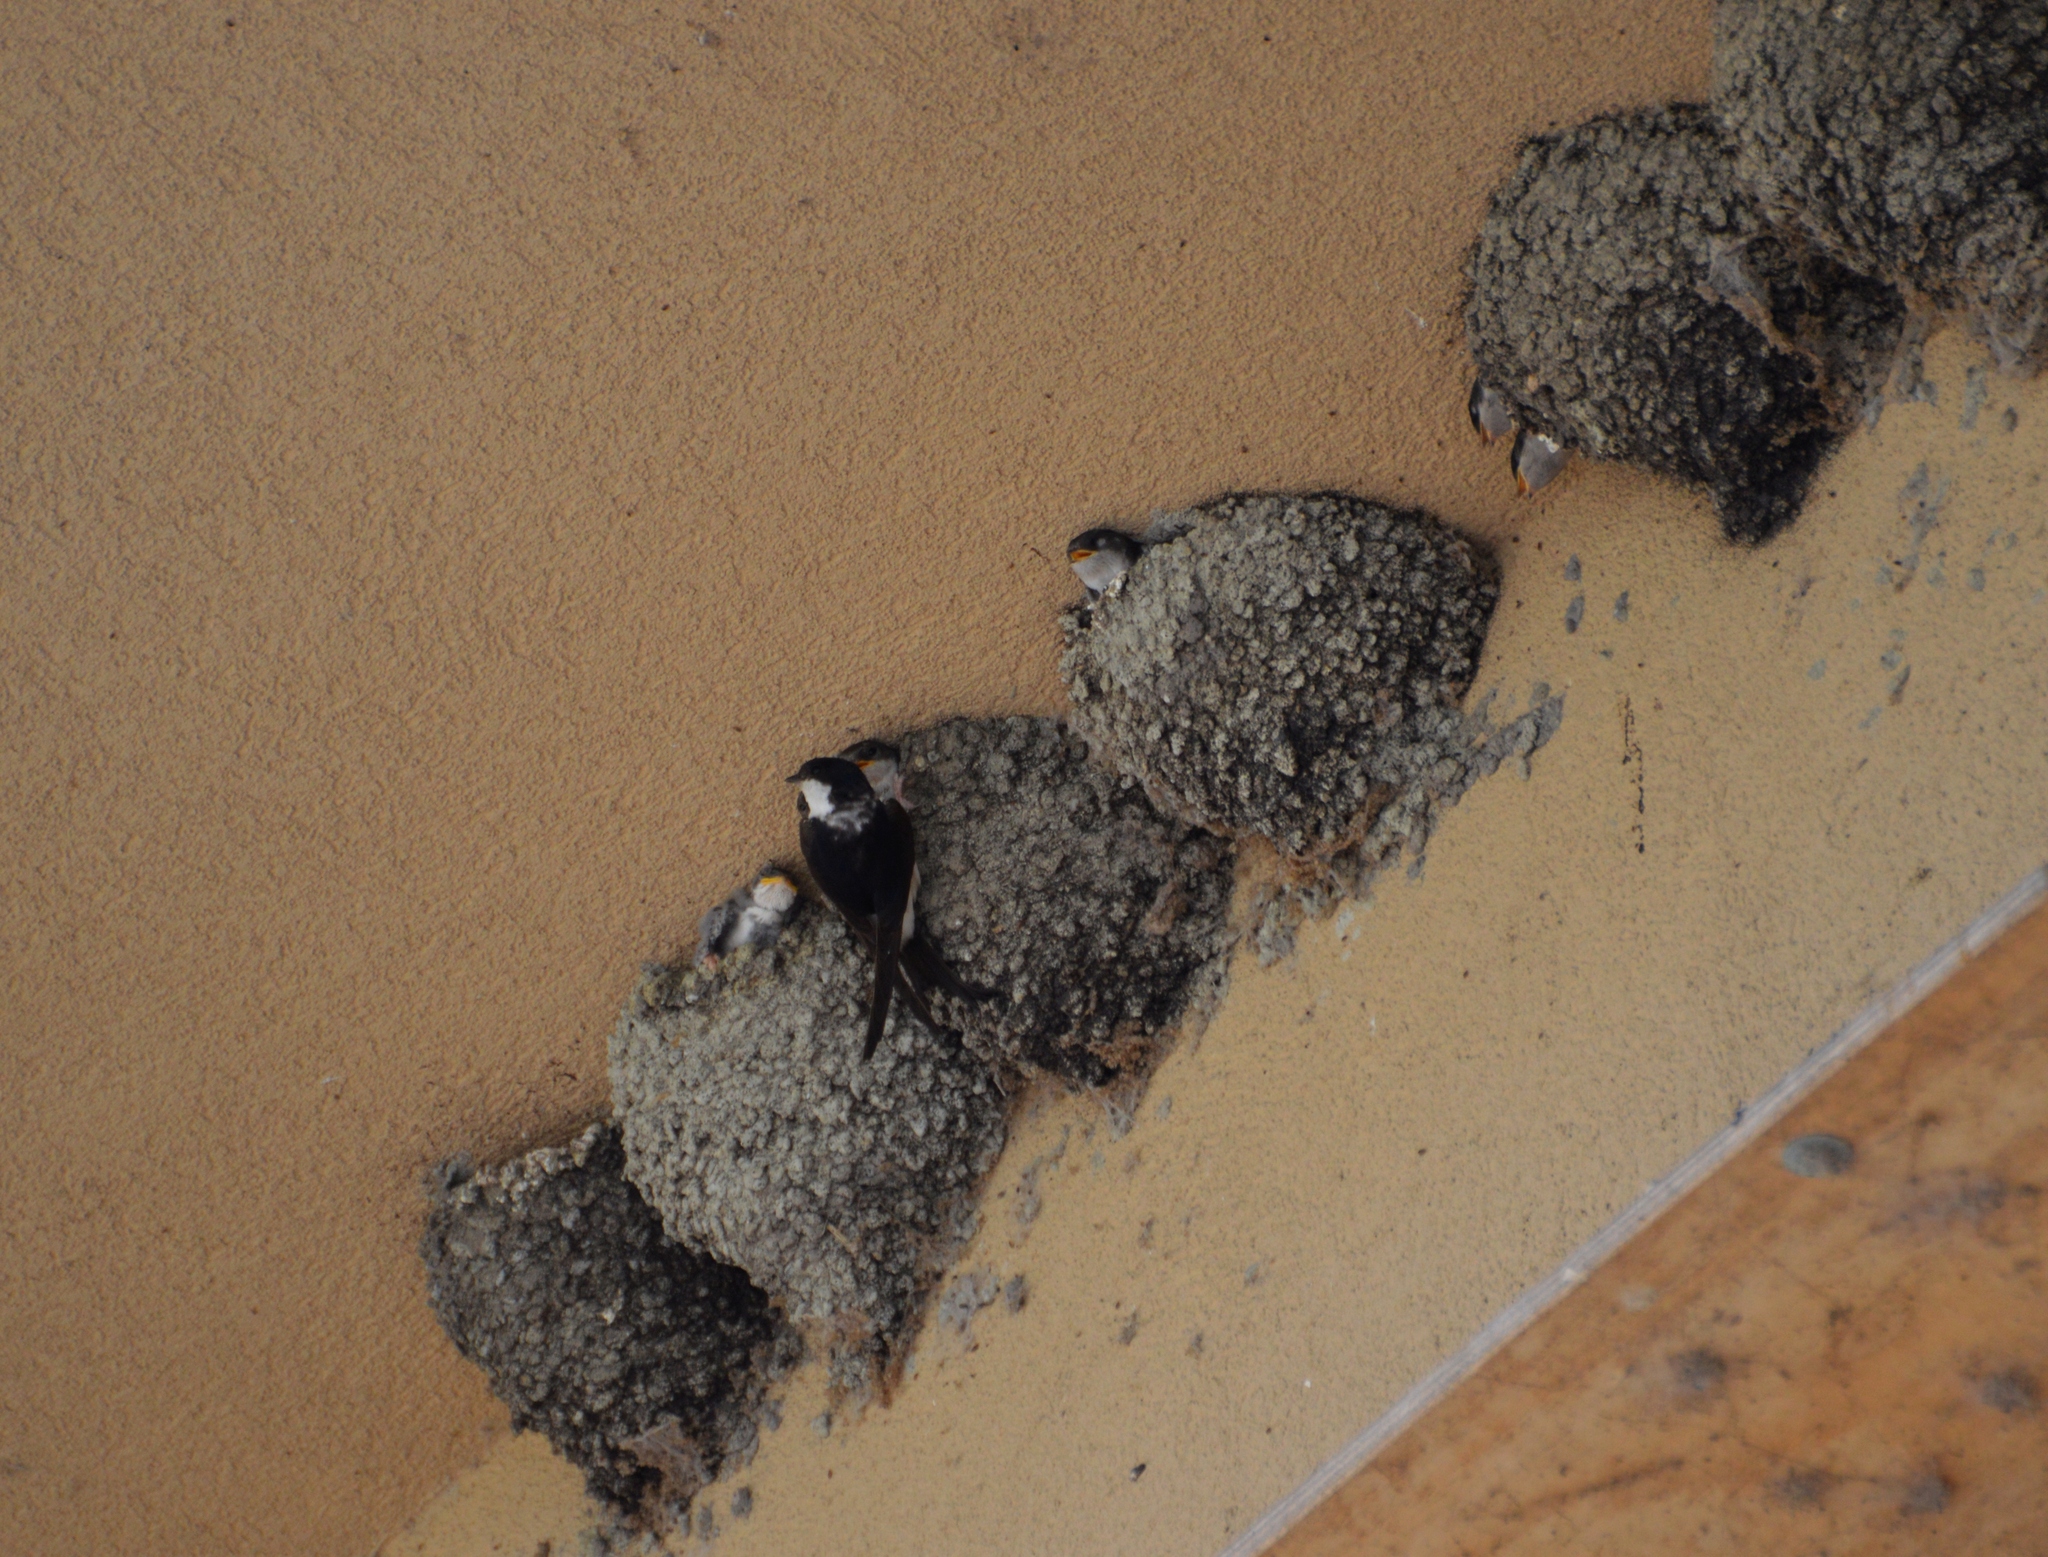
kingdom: Animalia
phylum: Chordata
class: Aves
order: Passeriformes
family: Hirundinidae
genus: Delichon
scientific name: Delichon urbicum
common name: Common house martin
